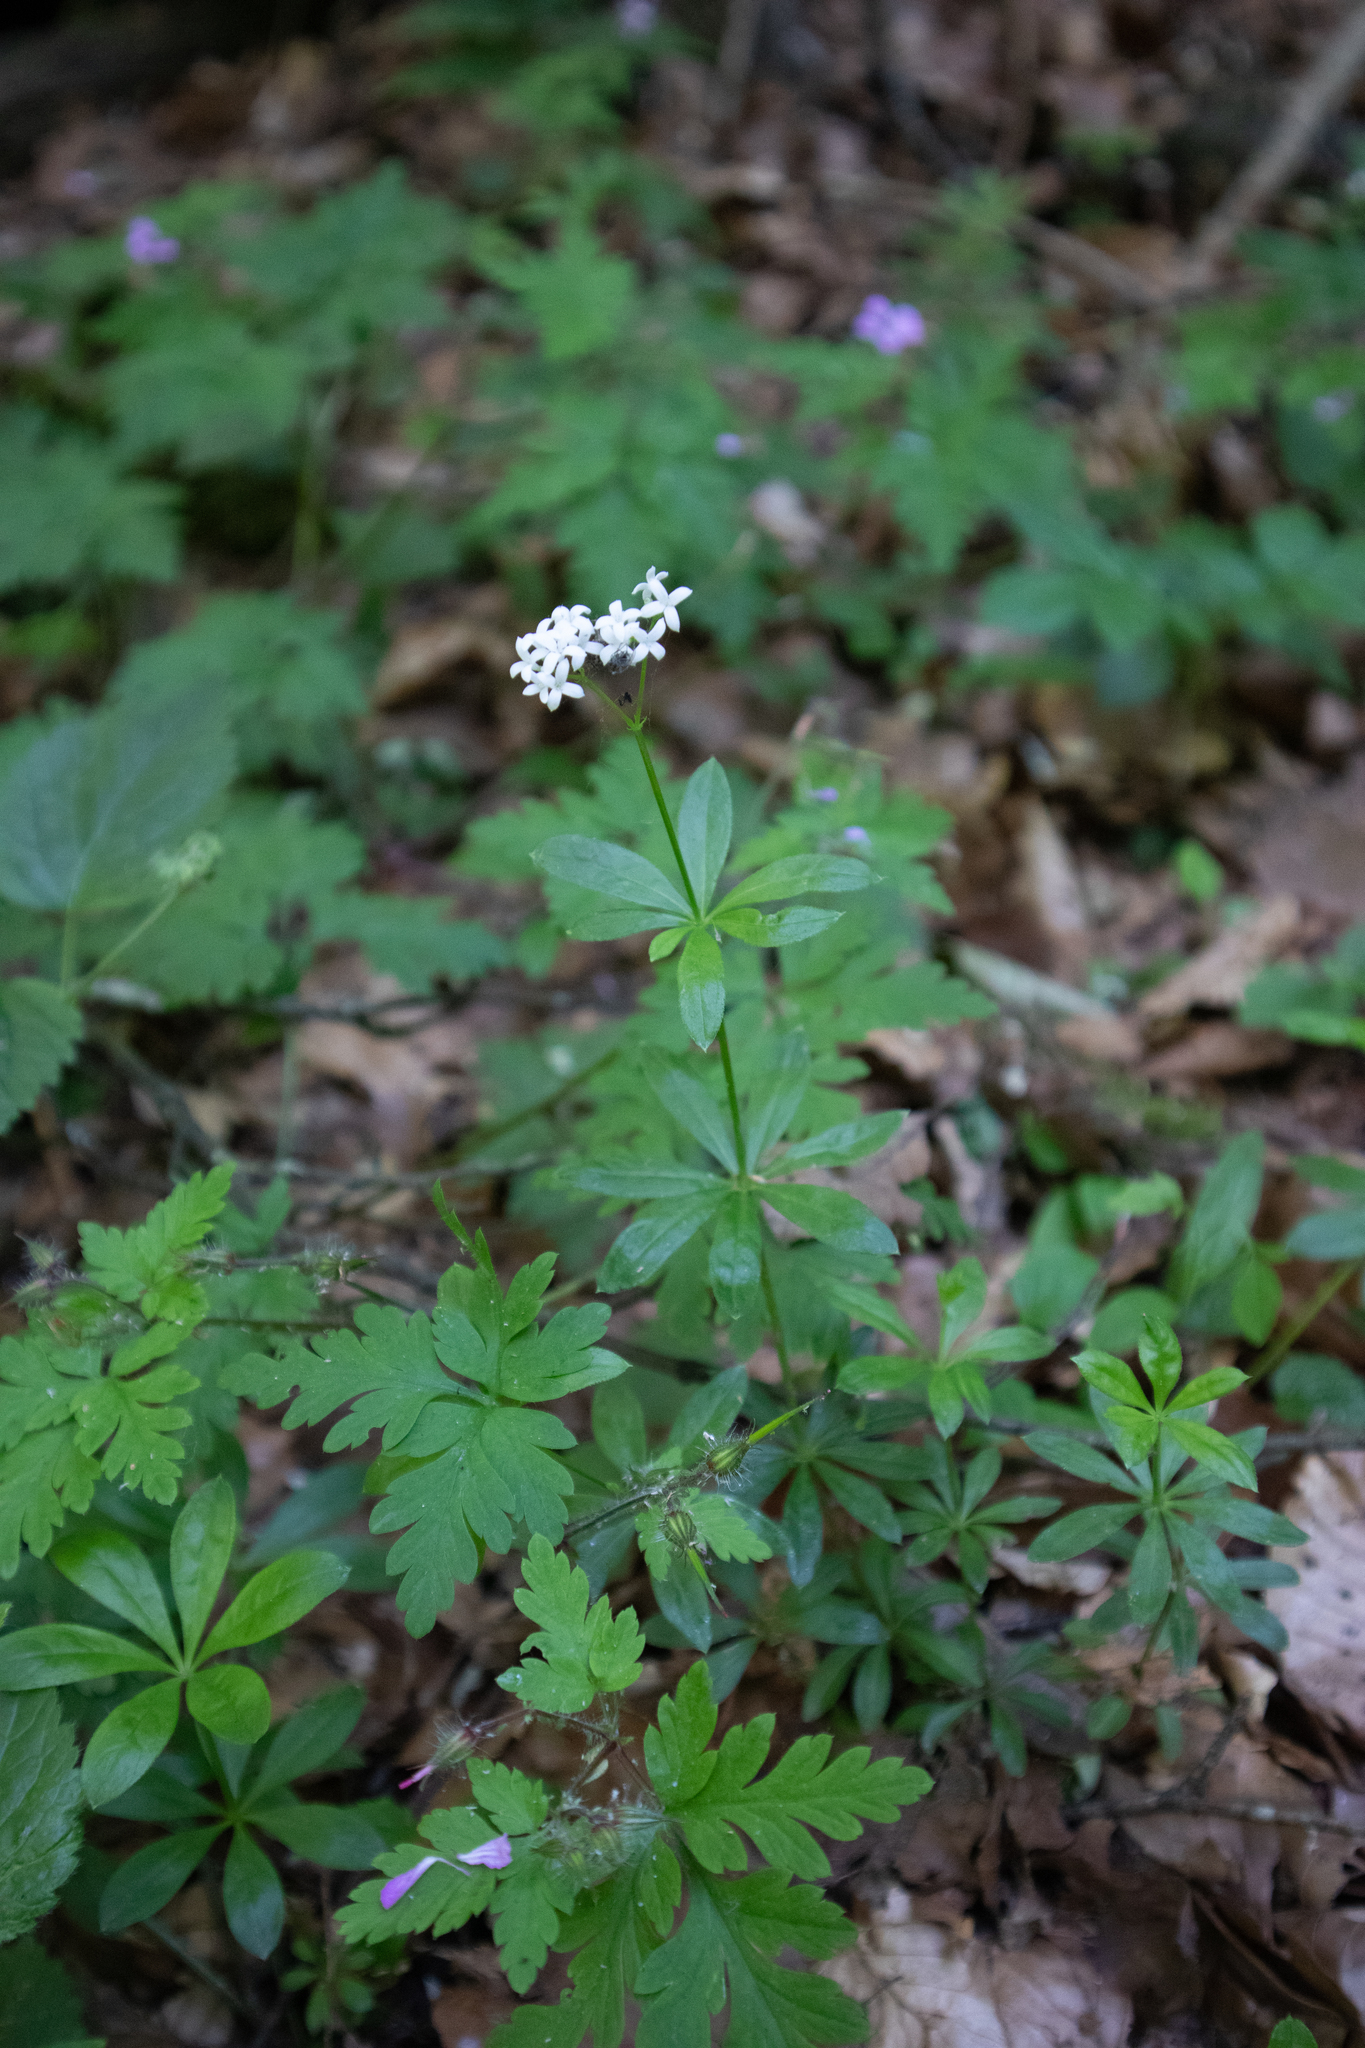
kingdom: Plantae
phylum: Tracheophyta
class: Magnoliopsida
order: Gentianales
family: Rubiaceae
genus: Galium
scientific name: Galium odoratum
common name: Sweet woodruff
